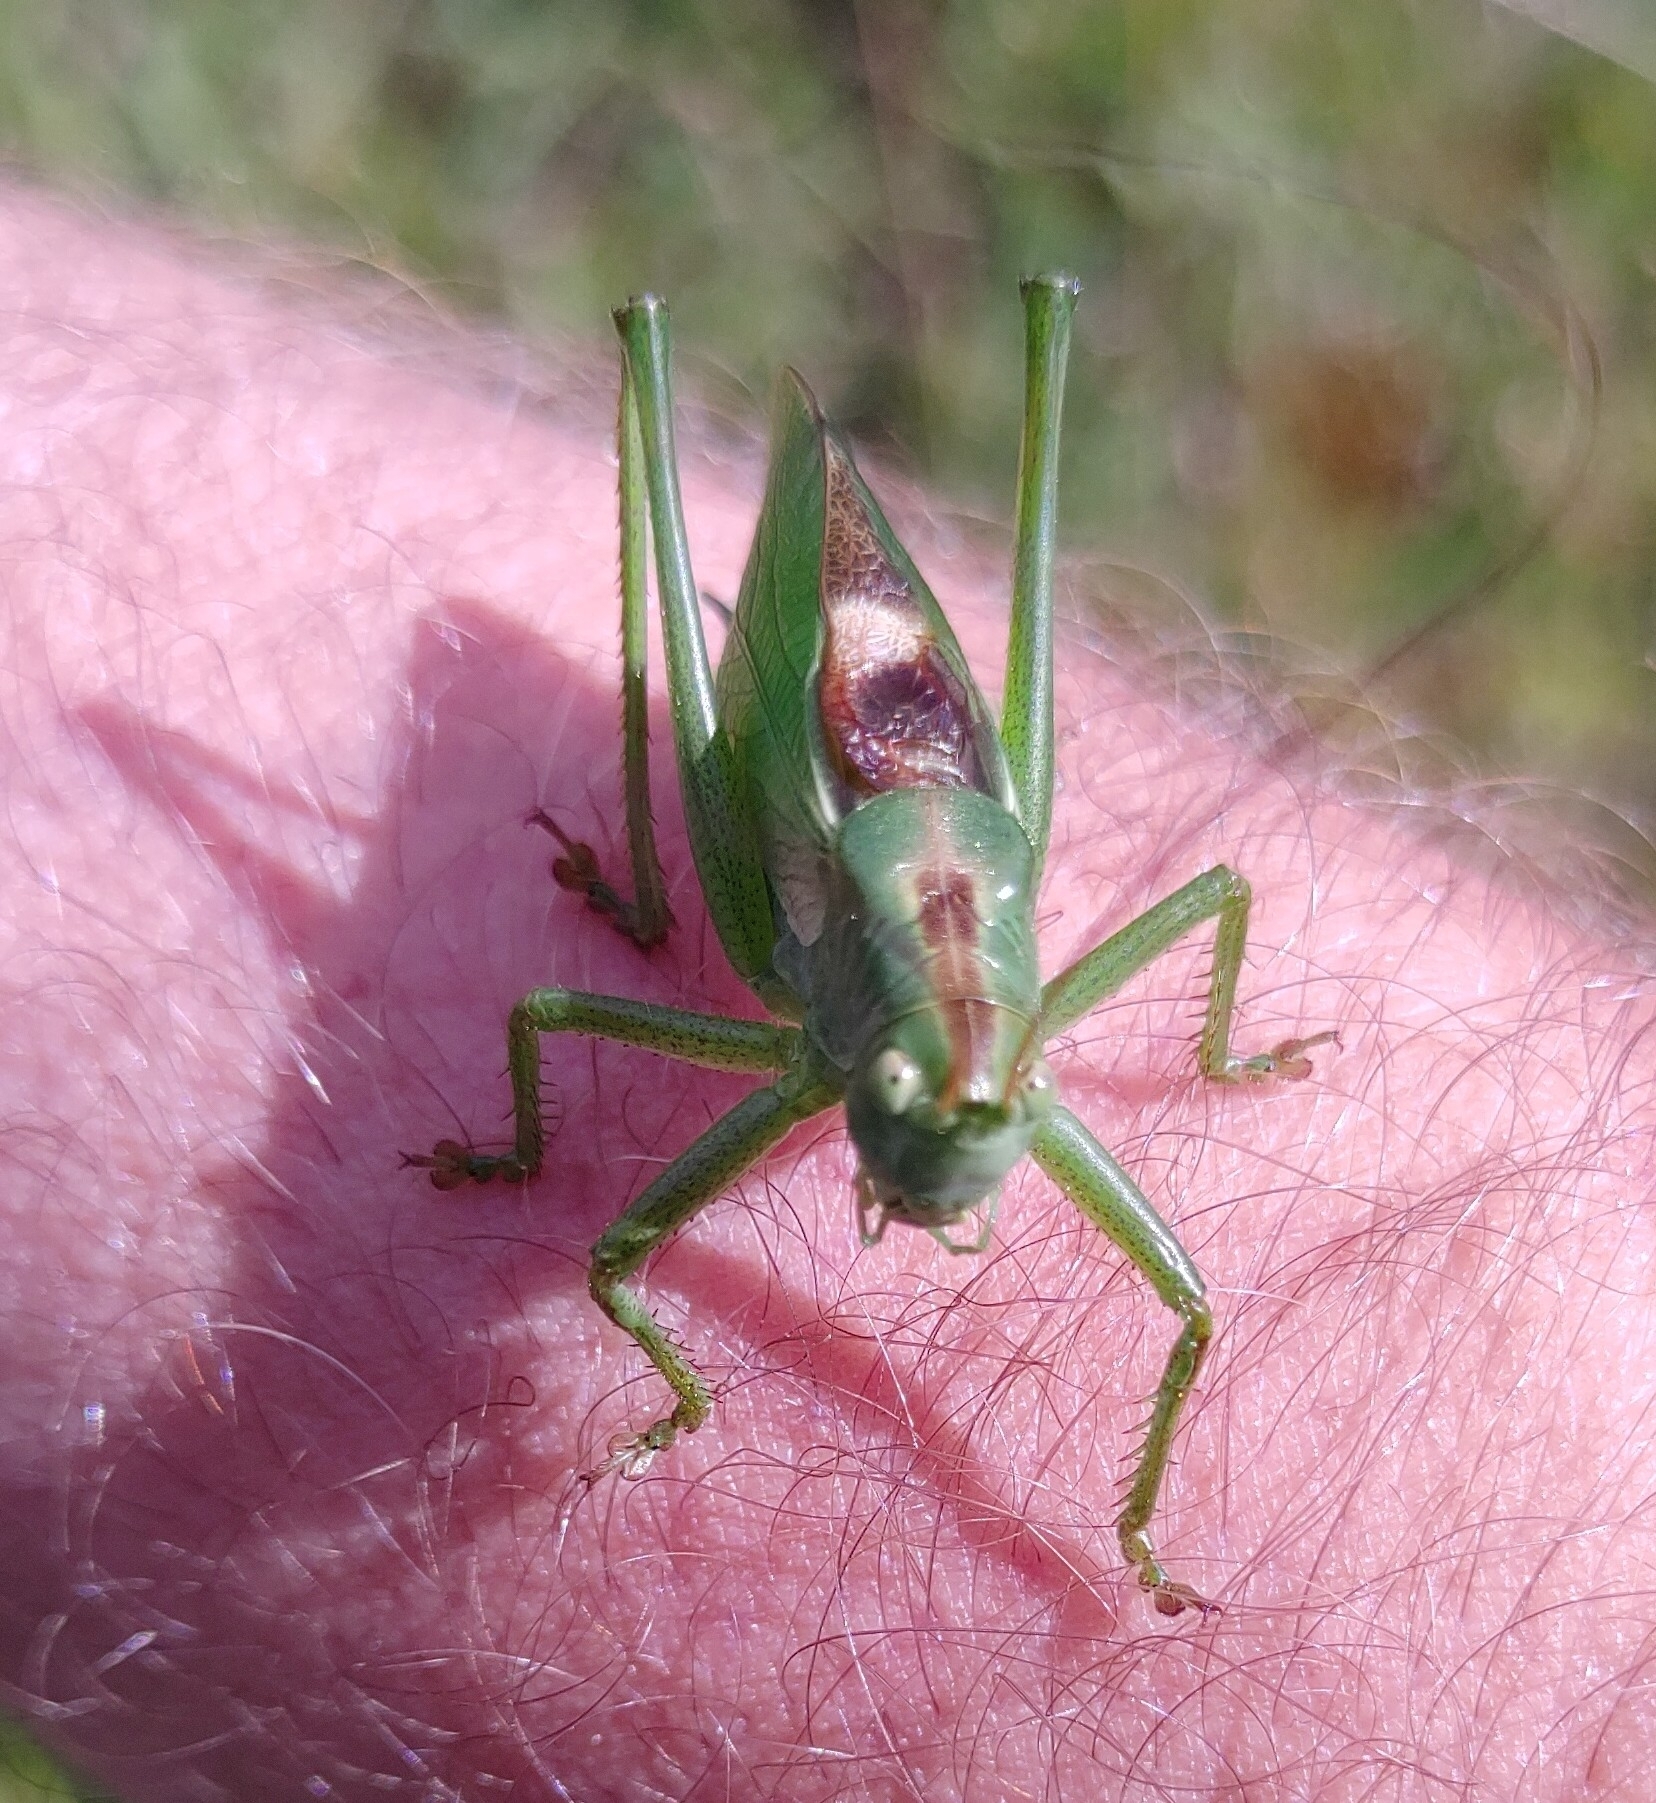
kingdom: Animalia
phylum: Arthropoda
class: Insecta
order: Orthoptera
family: Tettigoniidae
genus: Tettigonia
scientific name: Tettigonia cantans
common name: Upland green bush-cricket
